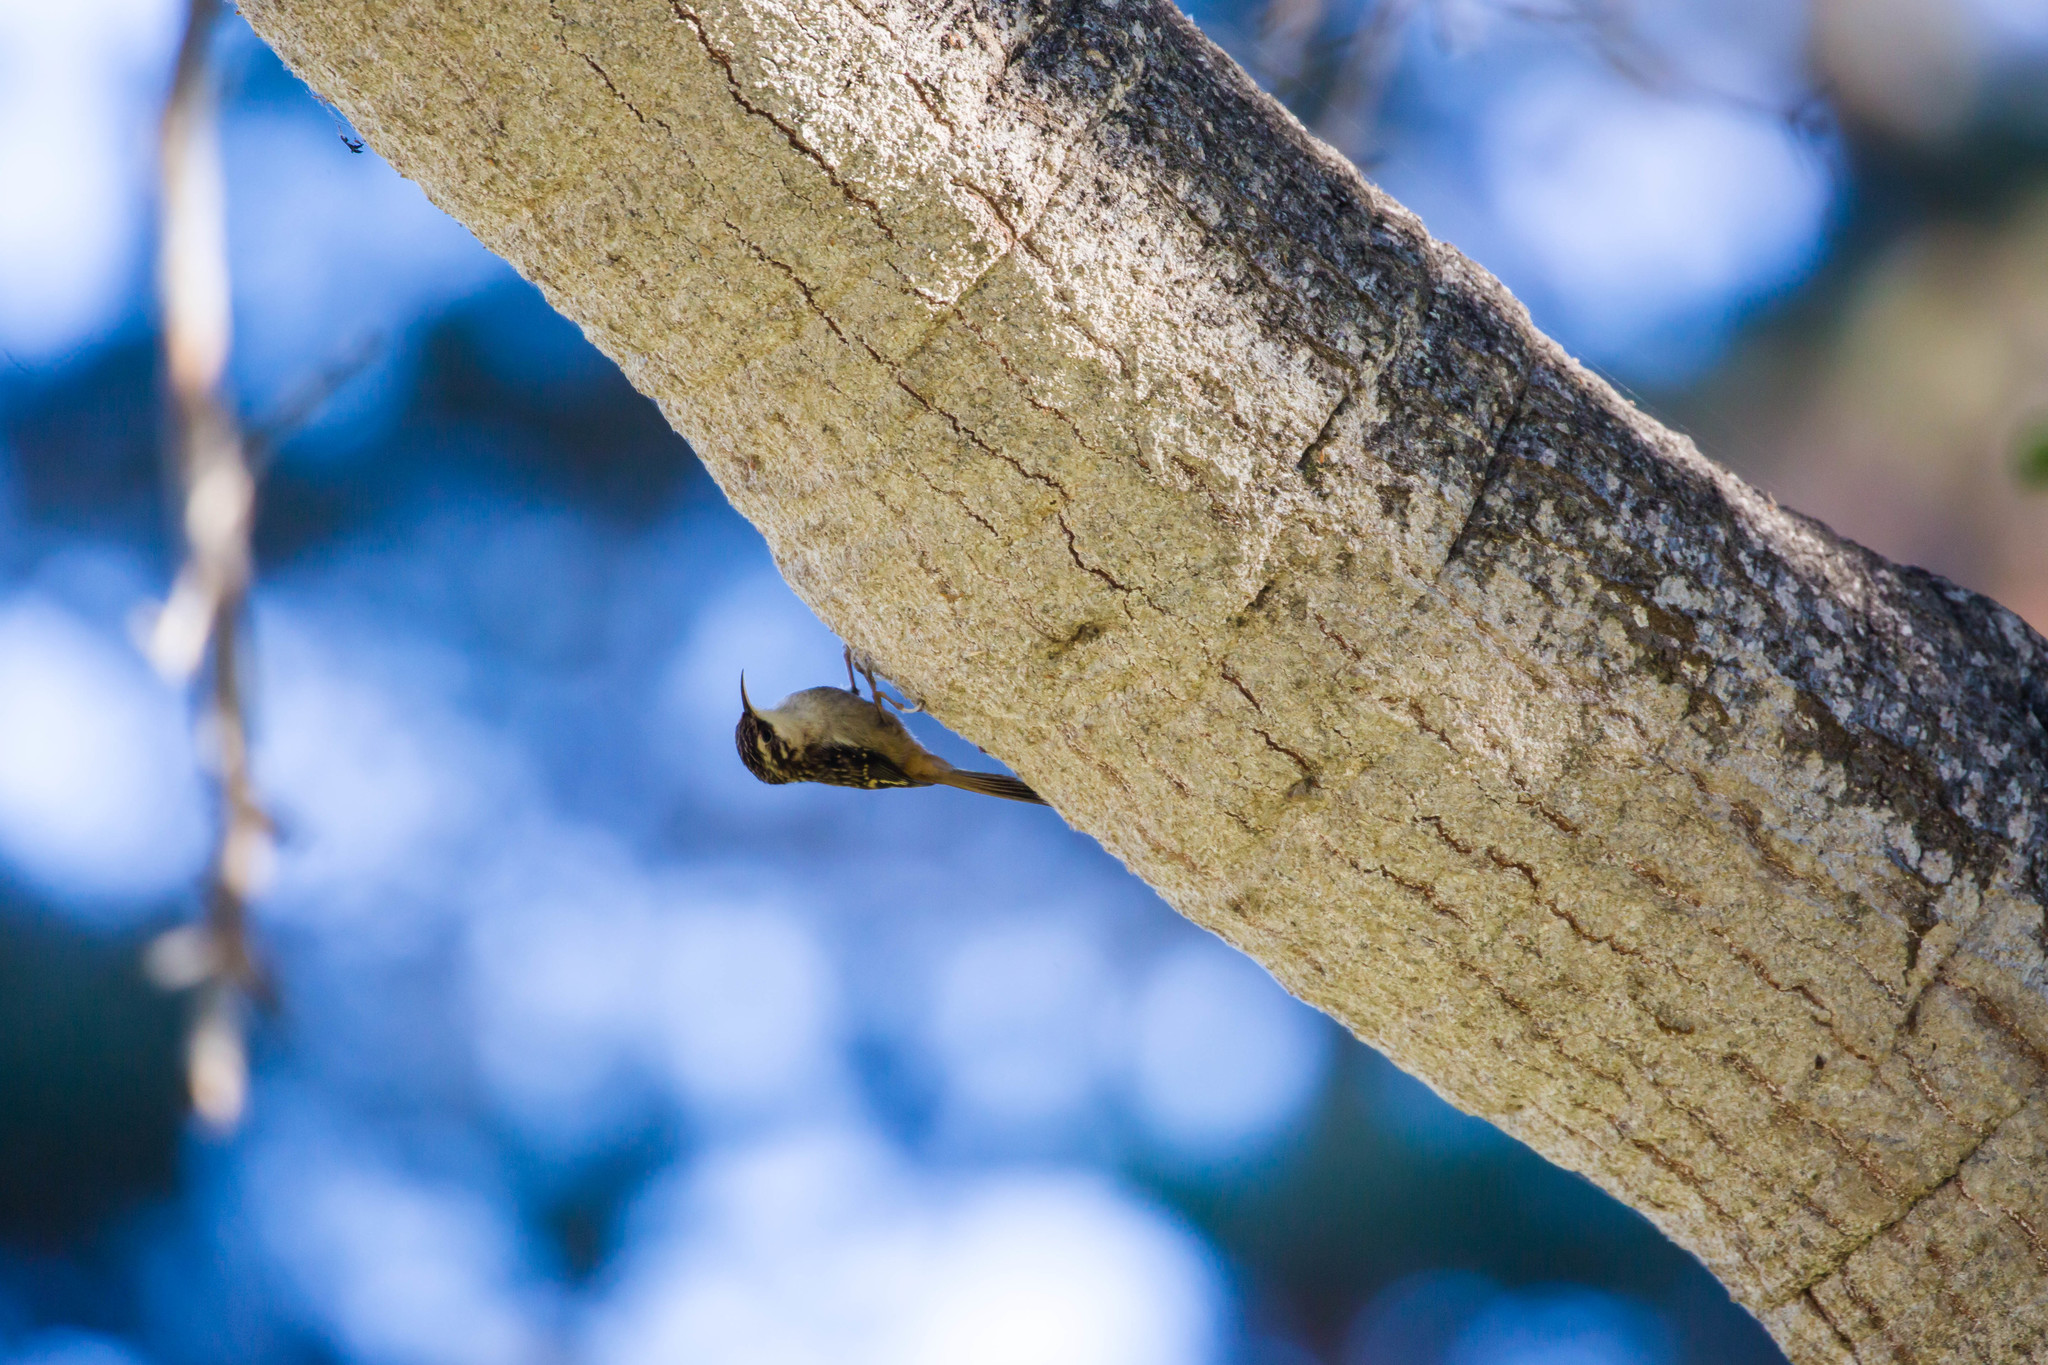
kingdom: Animalia
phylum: Chordata
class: Aves
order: Passeriformes
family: Certhiidae
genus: Certhia
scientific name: Certhia americana
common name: Brown creeper
